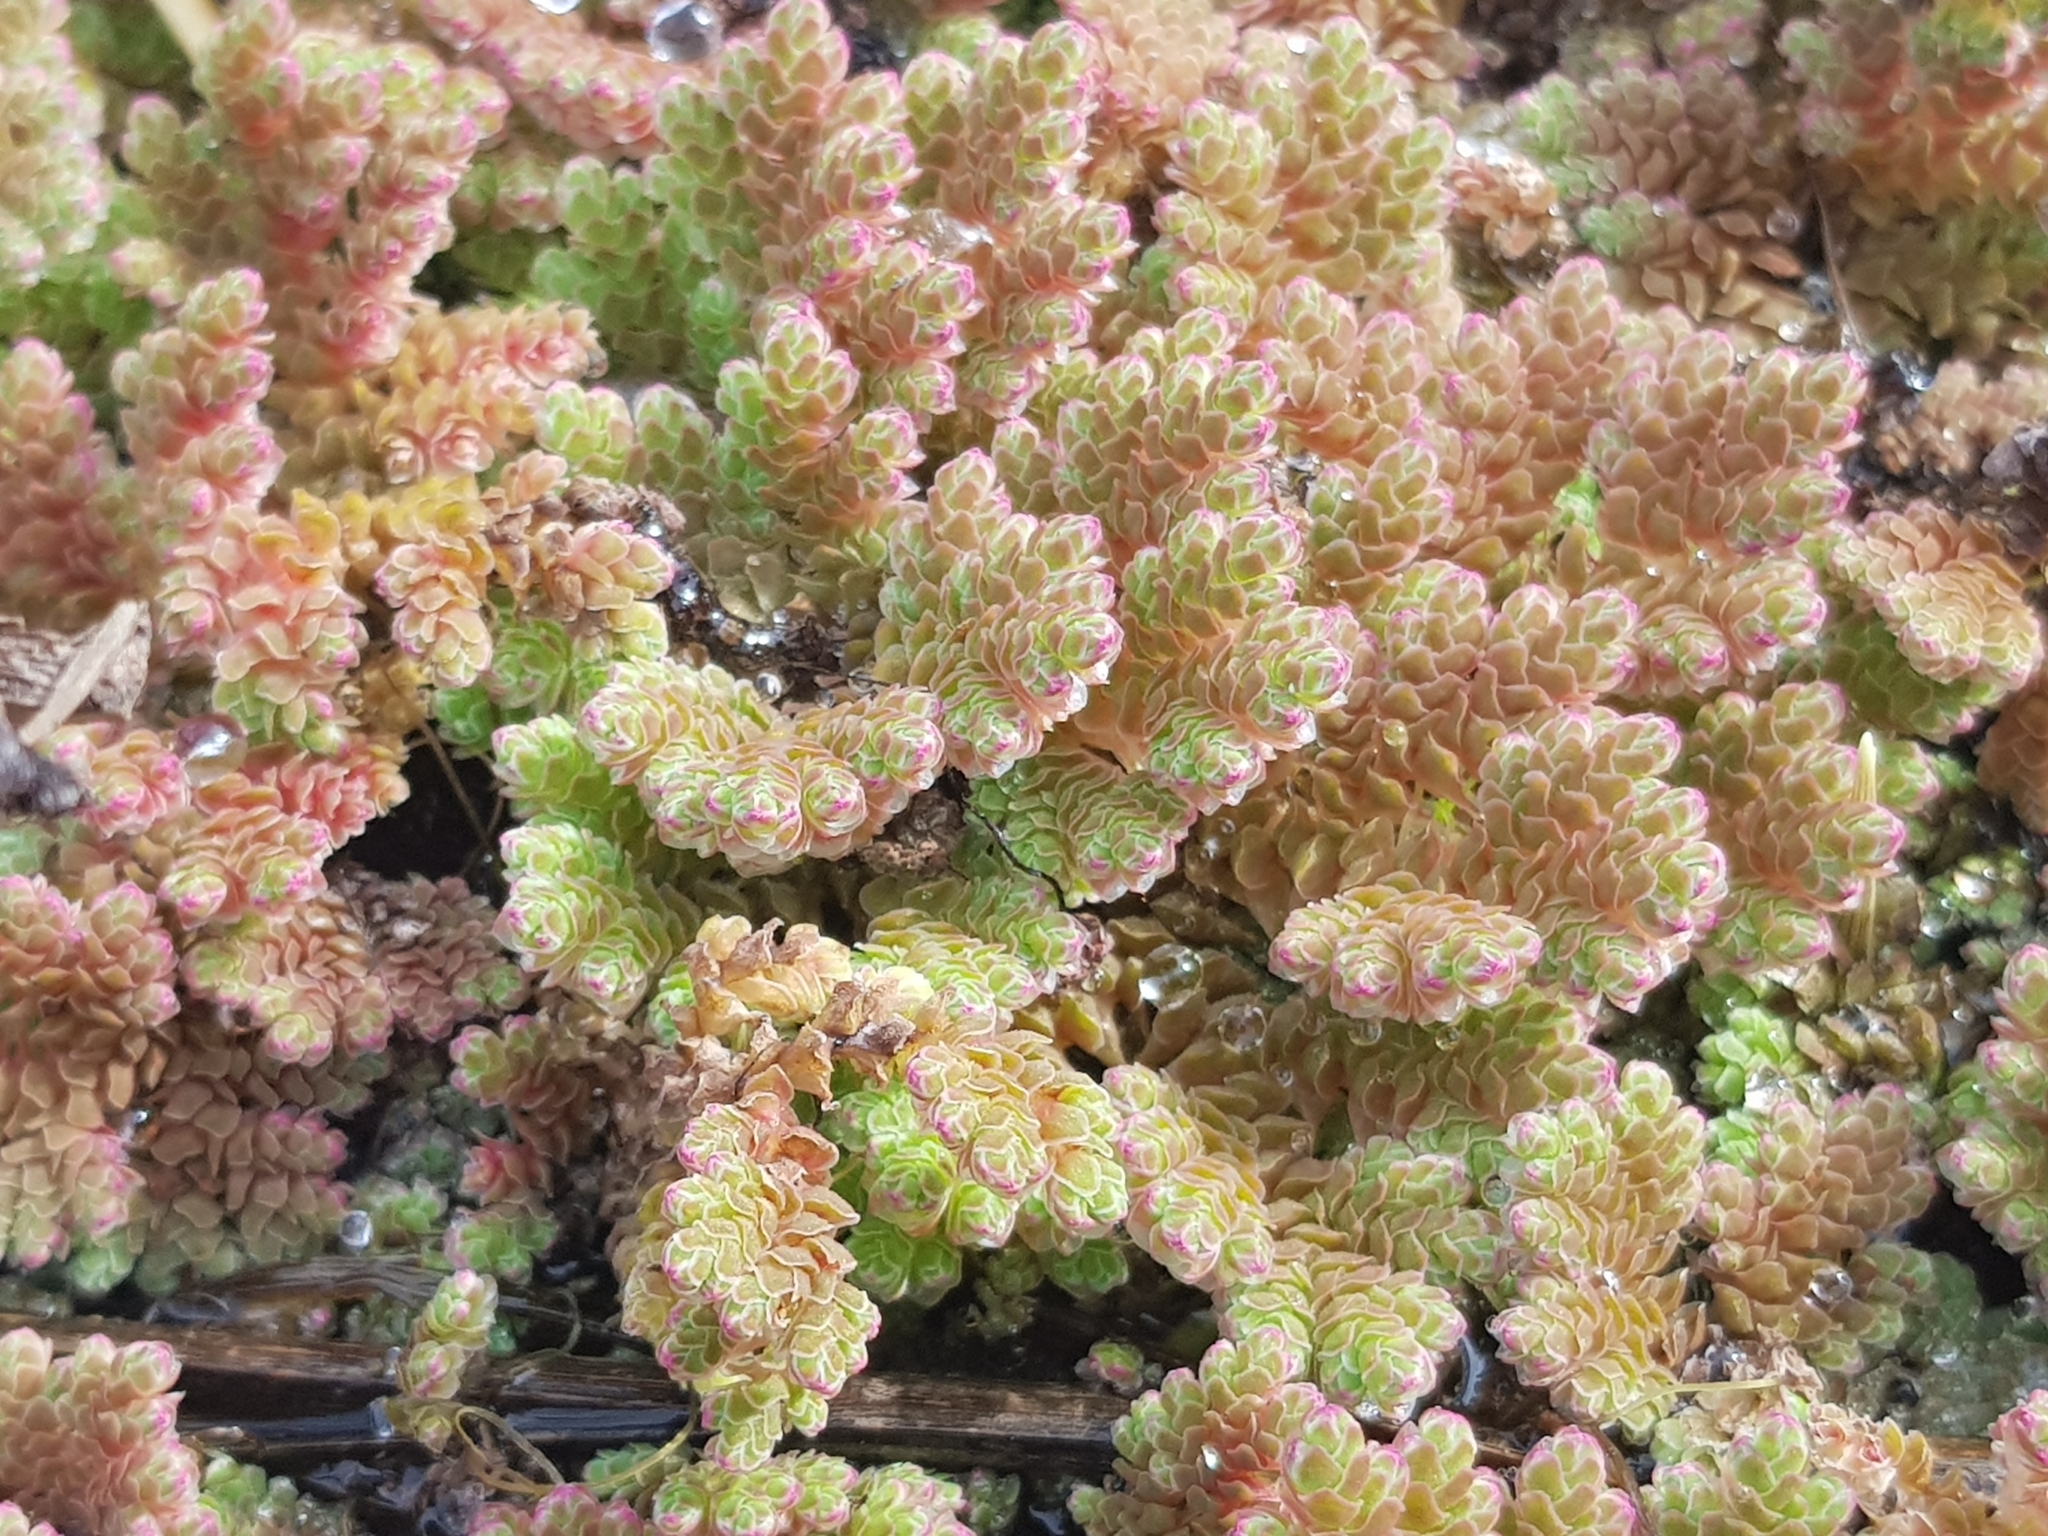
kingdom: Plantae
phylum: Tracheophyta
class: Polypodiopsida
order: Salviniales
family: Salviniaceae
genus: Azolla
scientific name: Azolla rubra
